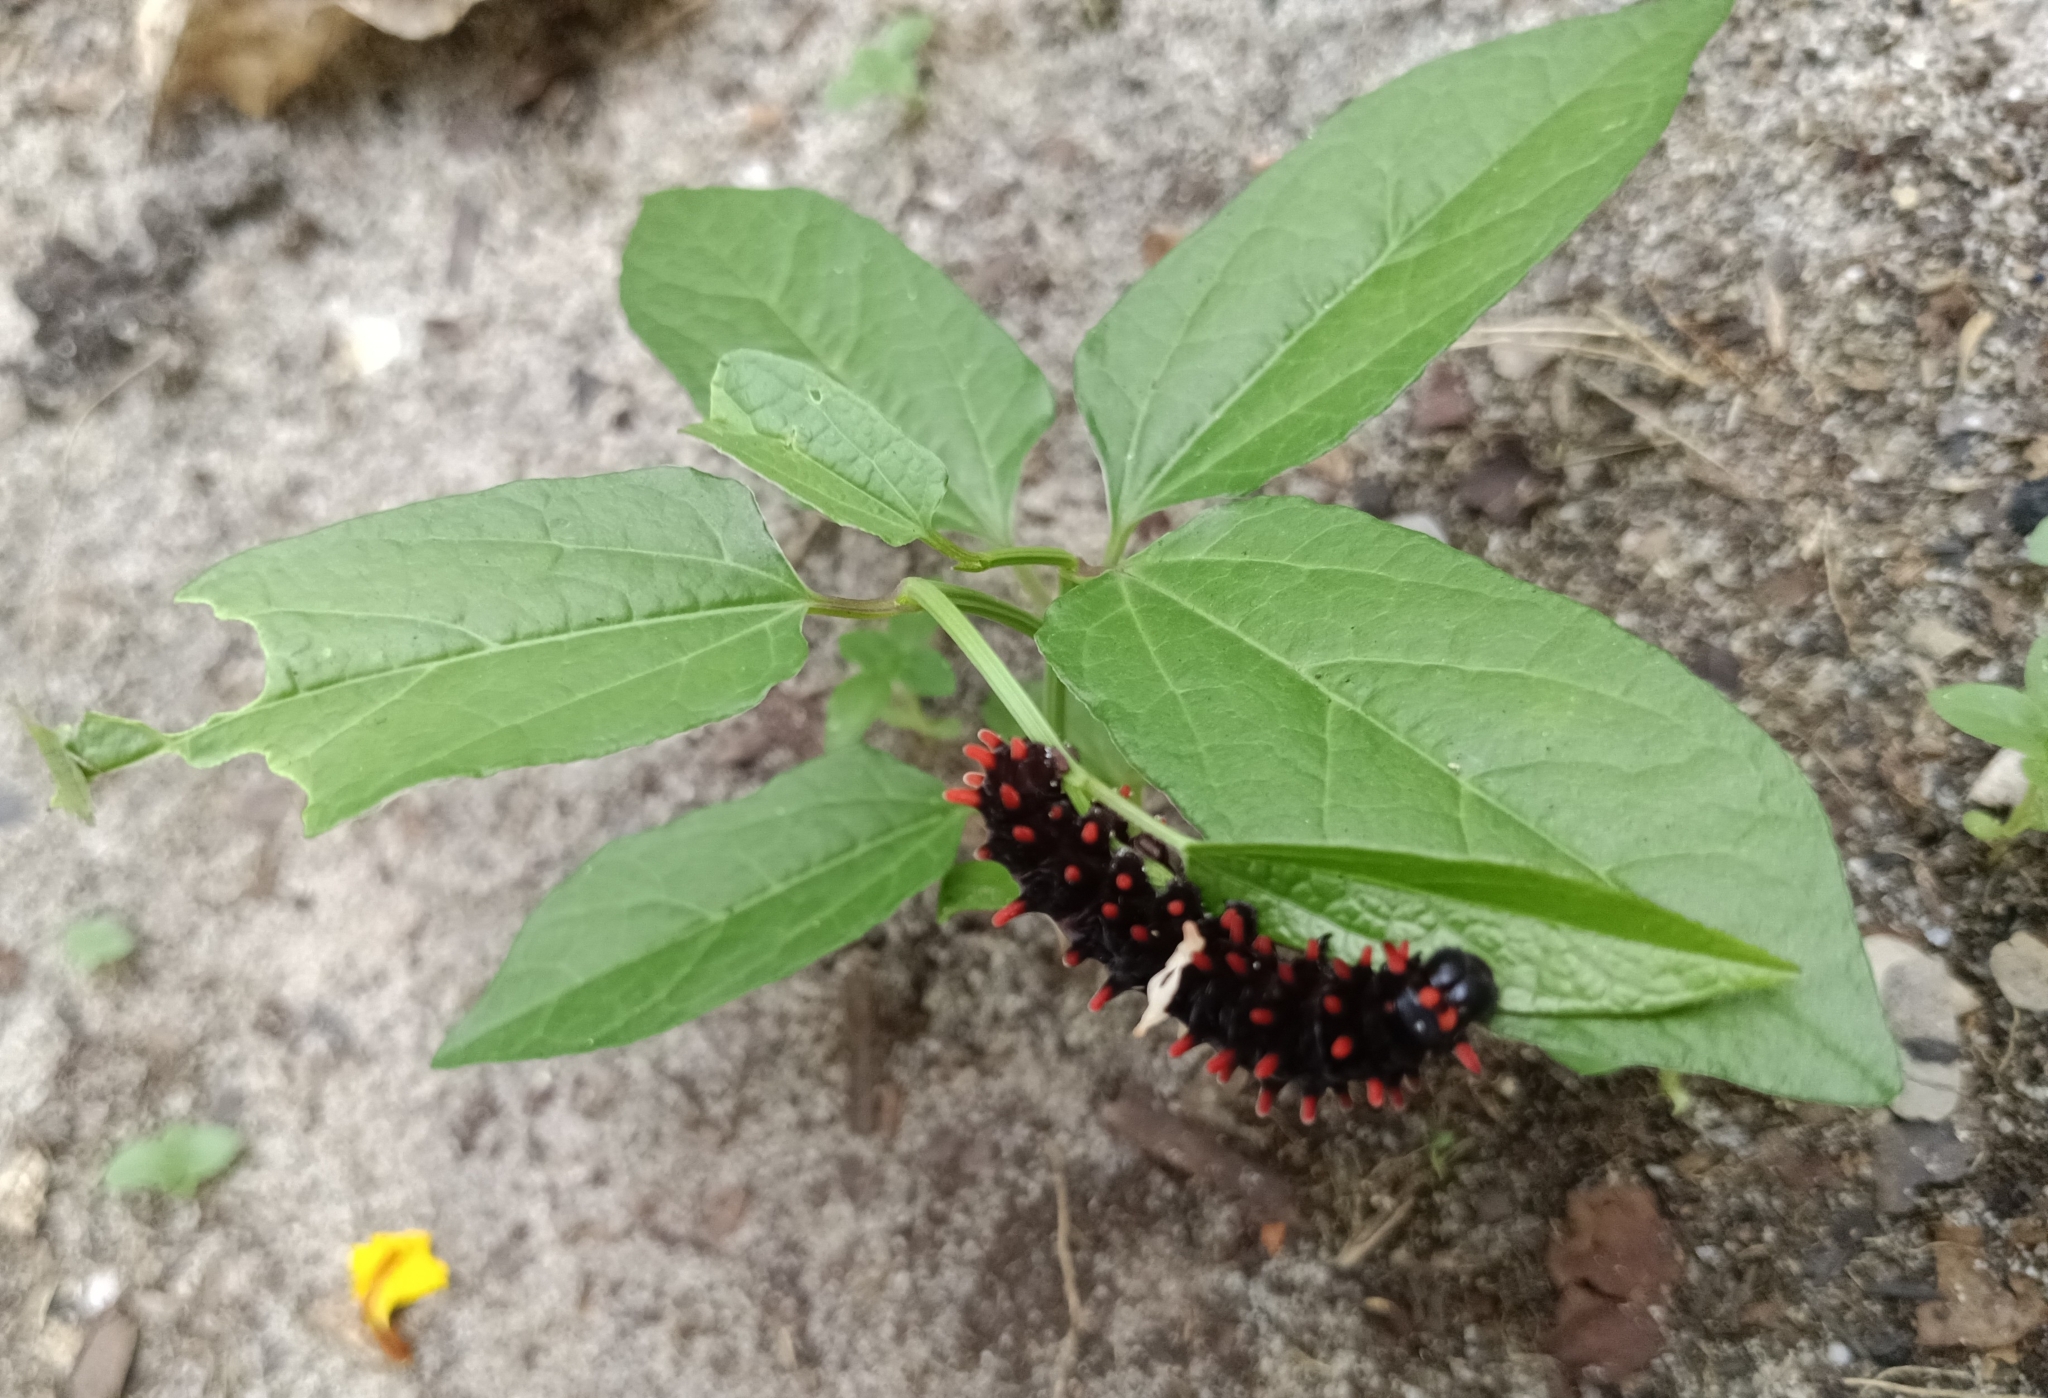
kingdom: Animalia
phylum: Arthropoda
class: Insecta
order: Lepidoptera
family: Papilionidae
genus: Pachliopta
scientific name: Pachliopta aristolochiae
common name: Common rose
